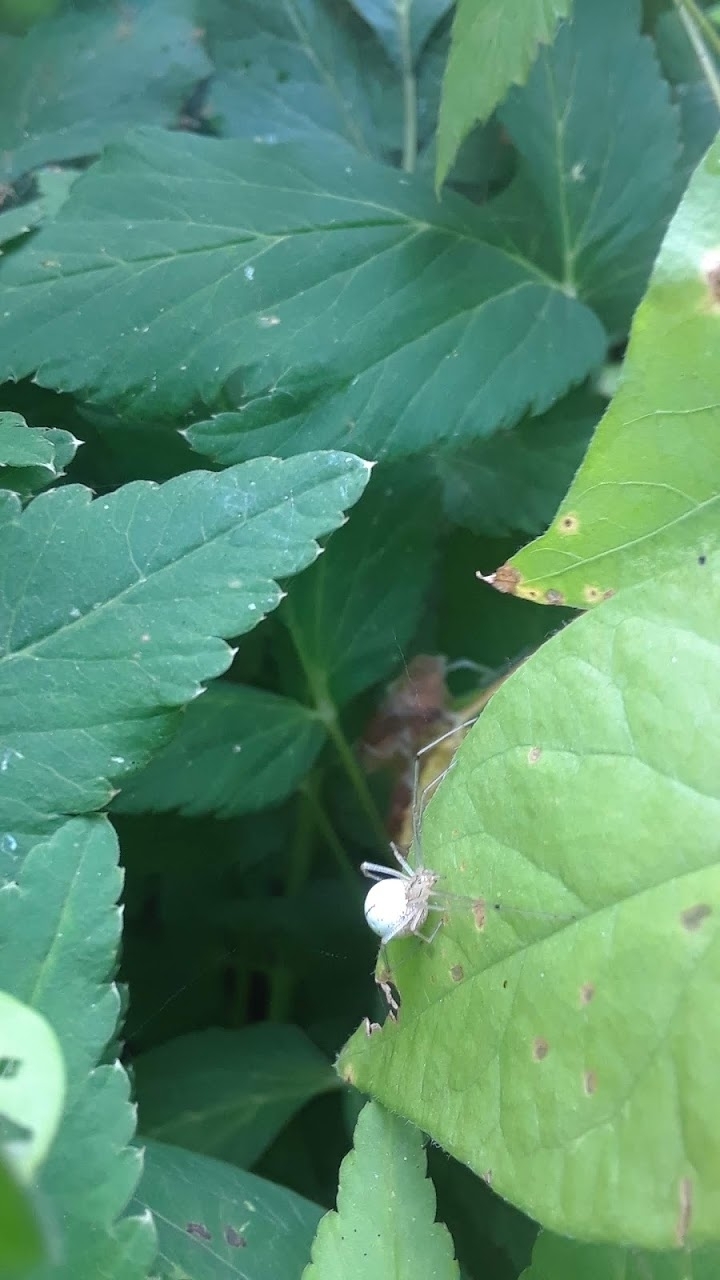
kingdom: Animalia
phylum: Arthropoda
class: Arachnida
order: Araneae
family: Theridiidae
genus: Enoplognatha
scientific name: Enoplognatha ovata
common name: Common candy-striped spider
